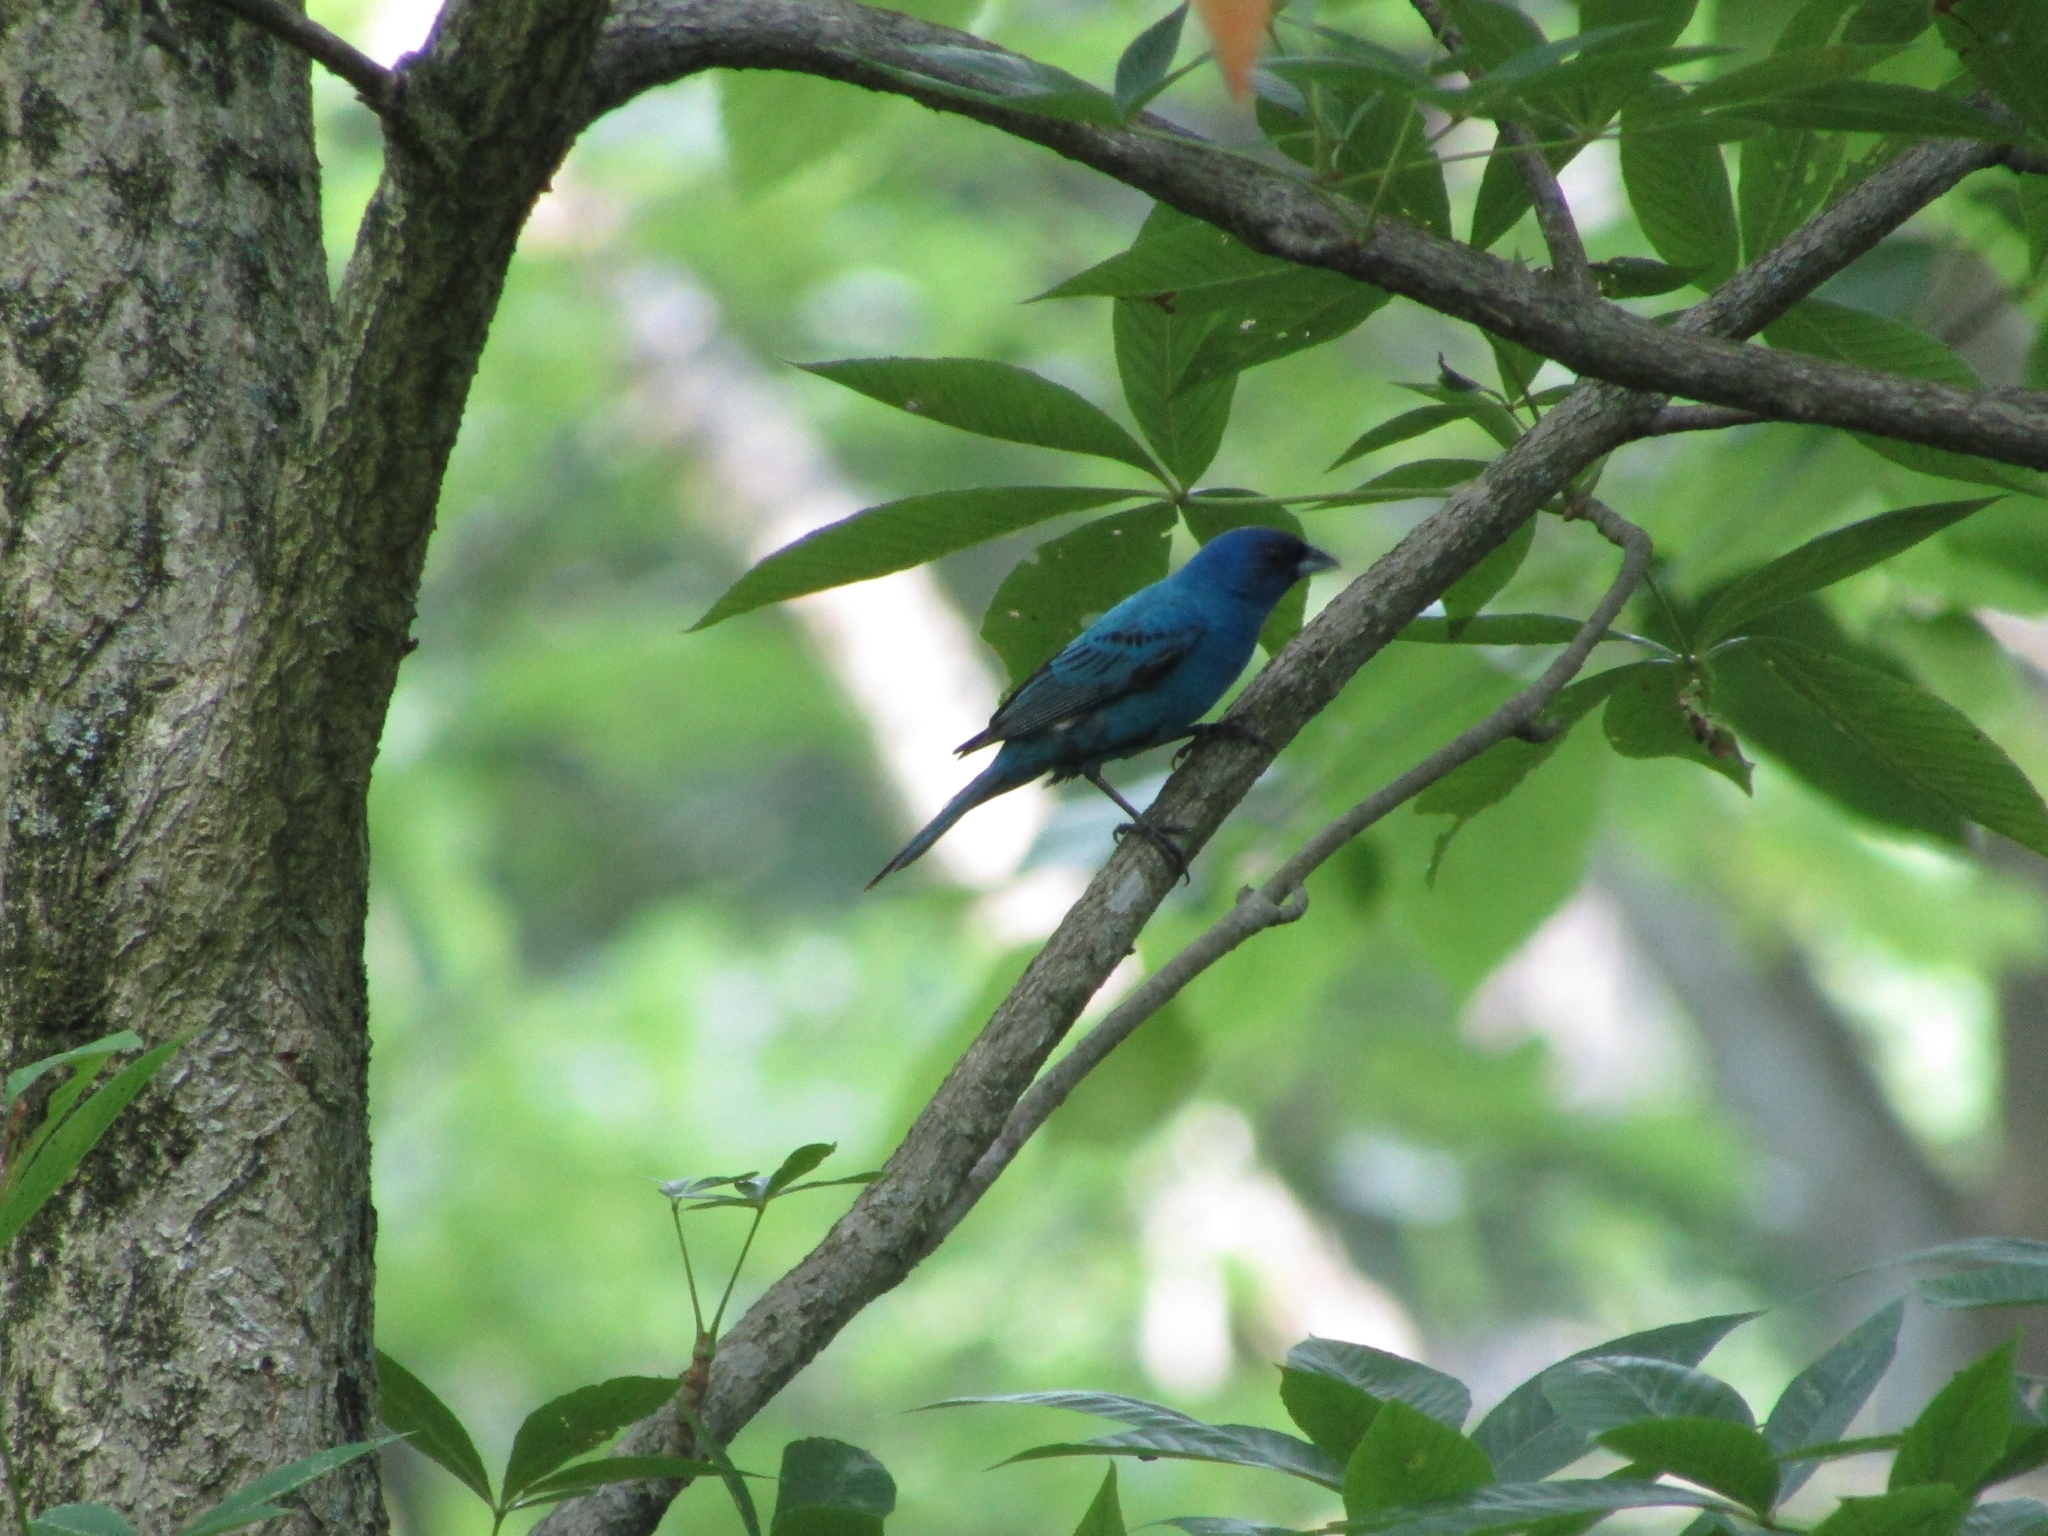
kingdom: Animalia
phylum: Chordata
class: Aves
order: Passeriformes
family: Cardinalidae
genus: Passerina
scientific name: Passerina cyanea
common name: Indigo bunting
